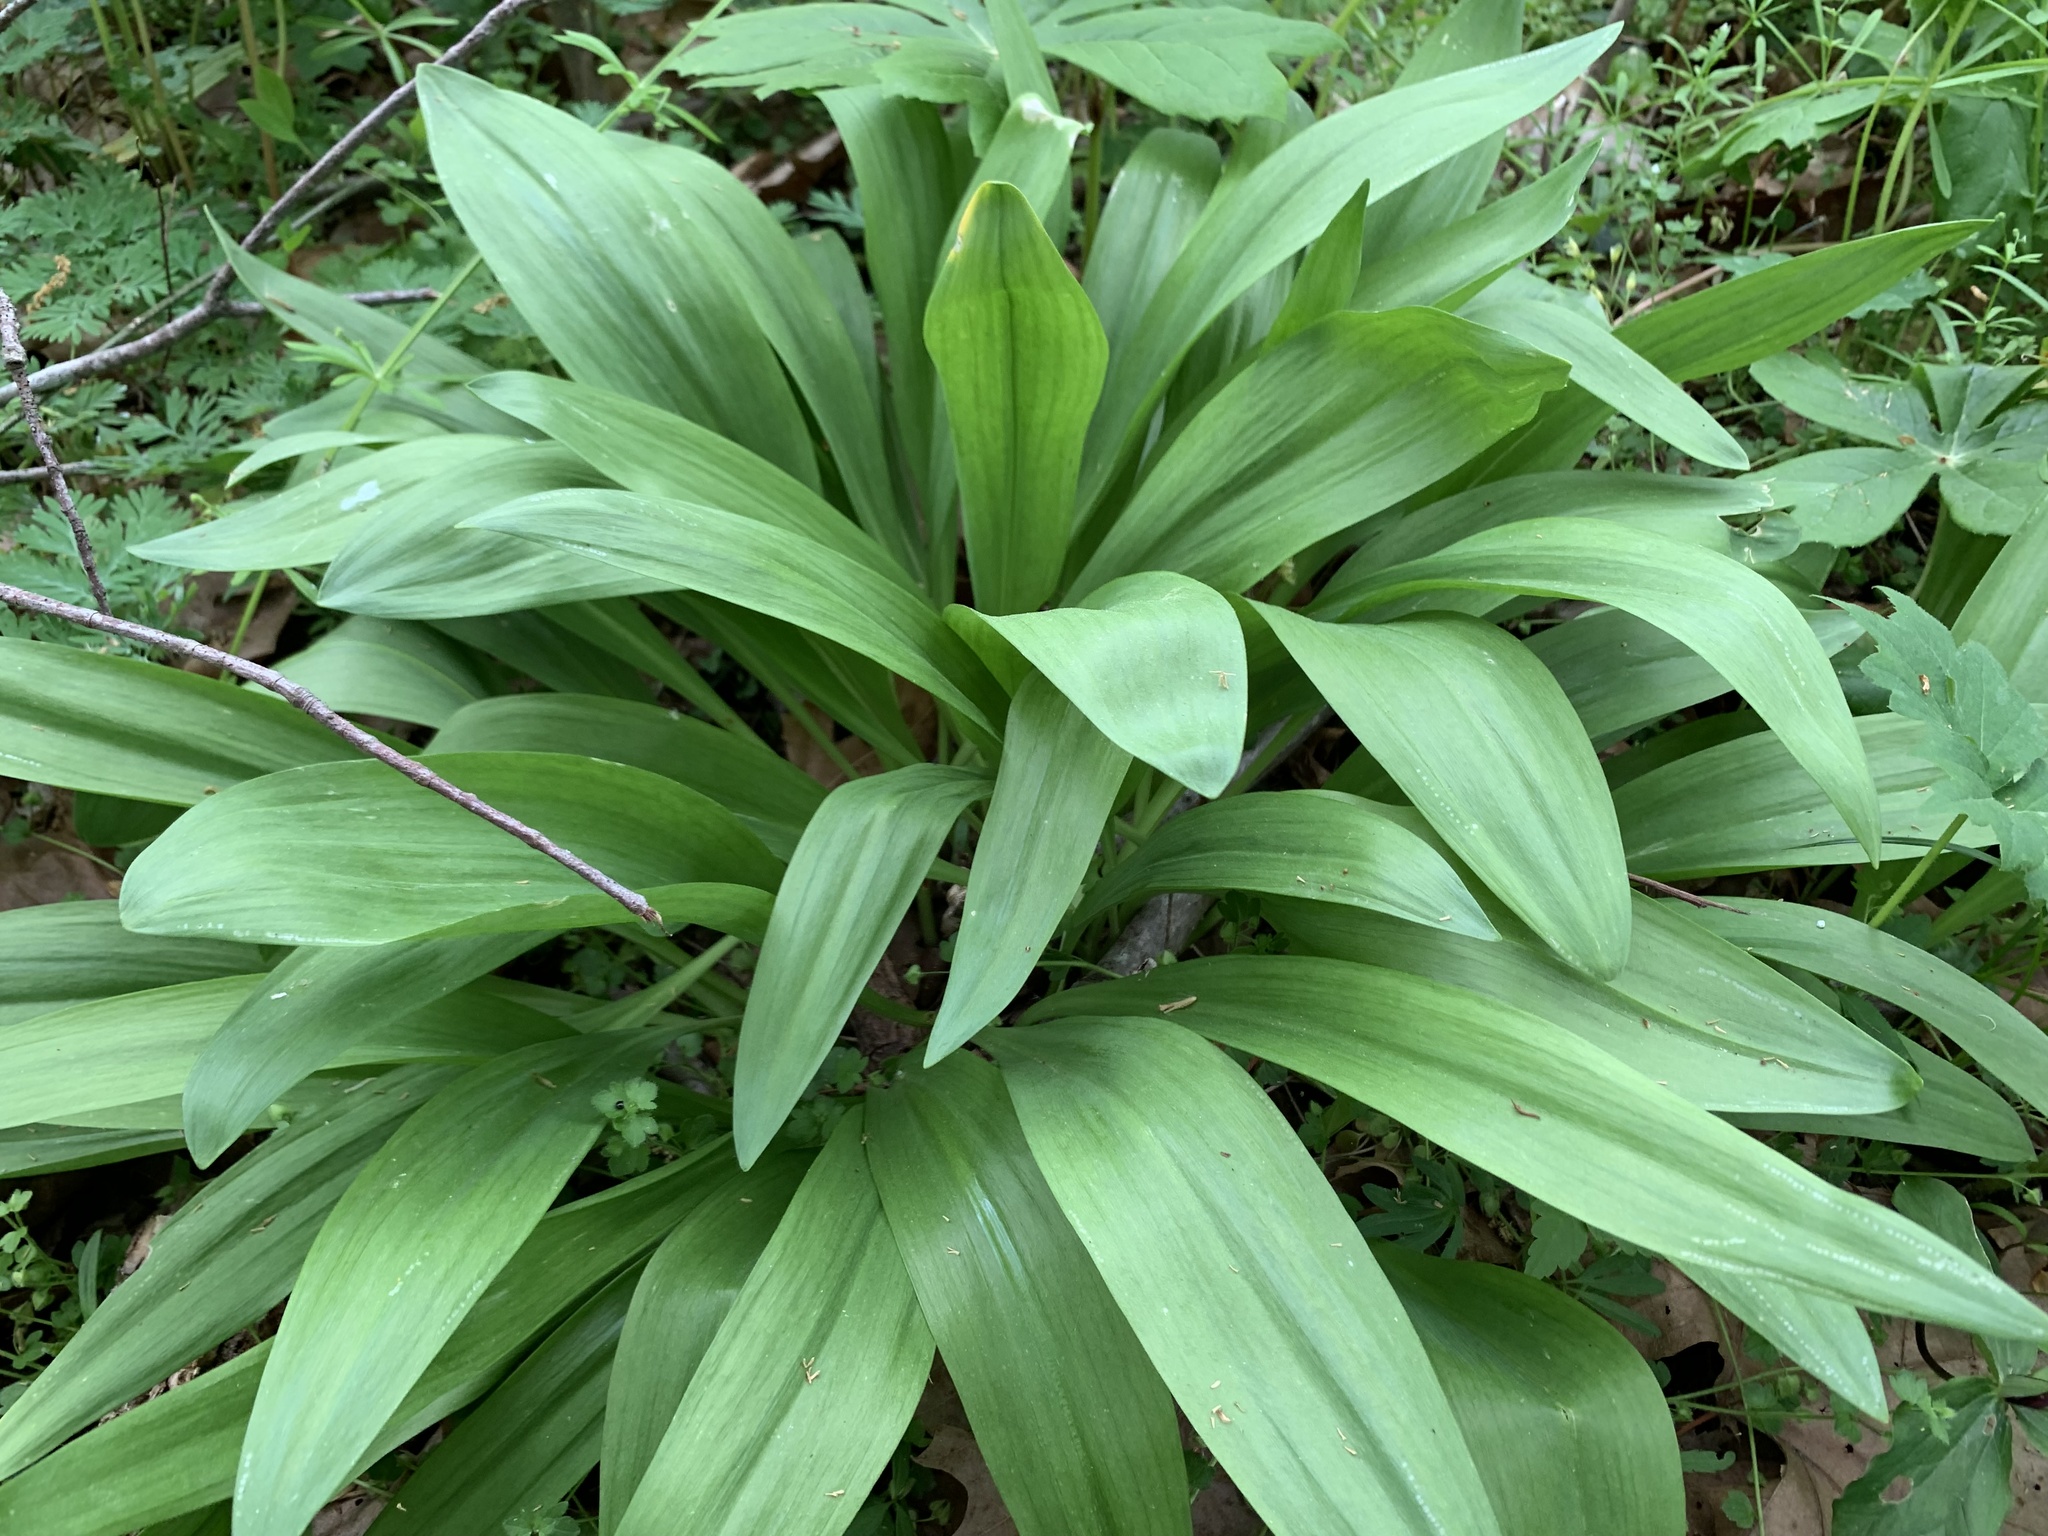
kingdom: Plantae
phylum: Tracheophyta
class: Liliopsida
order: Asparagales
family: Amaryllidaceae
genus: Allium
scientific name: Allium tricoccum
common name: Ramp
